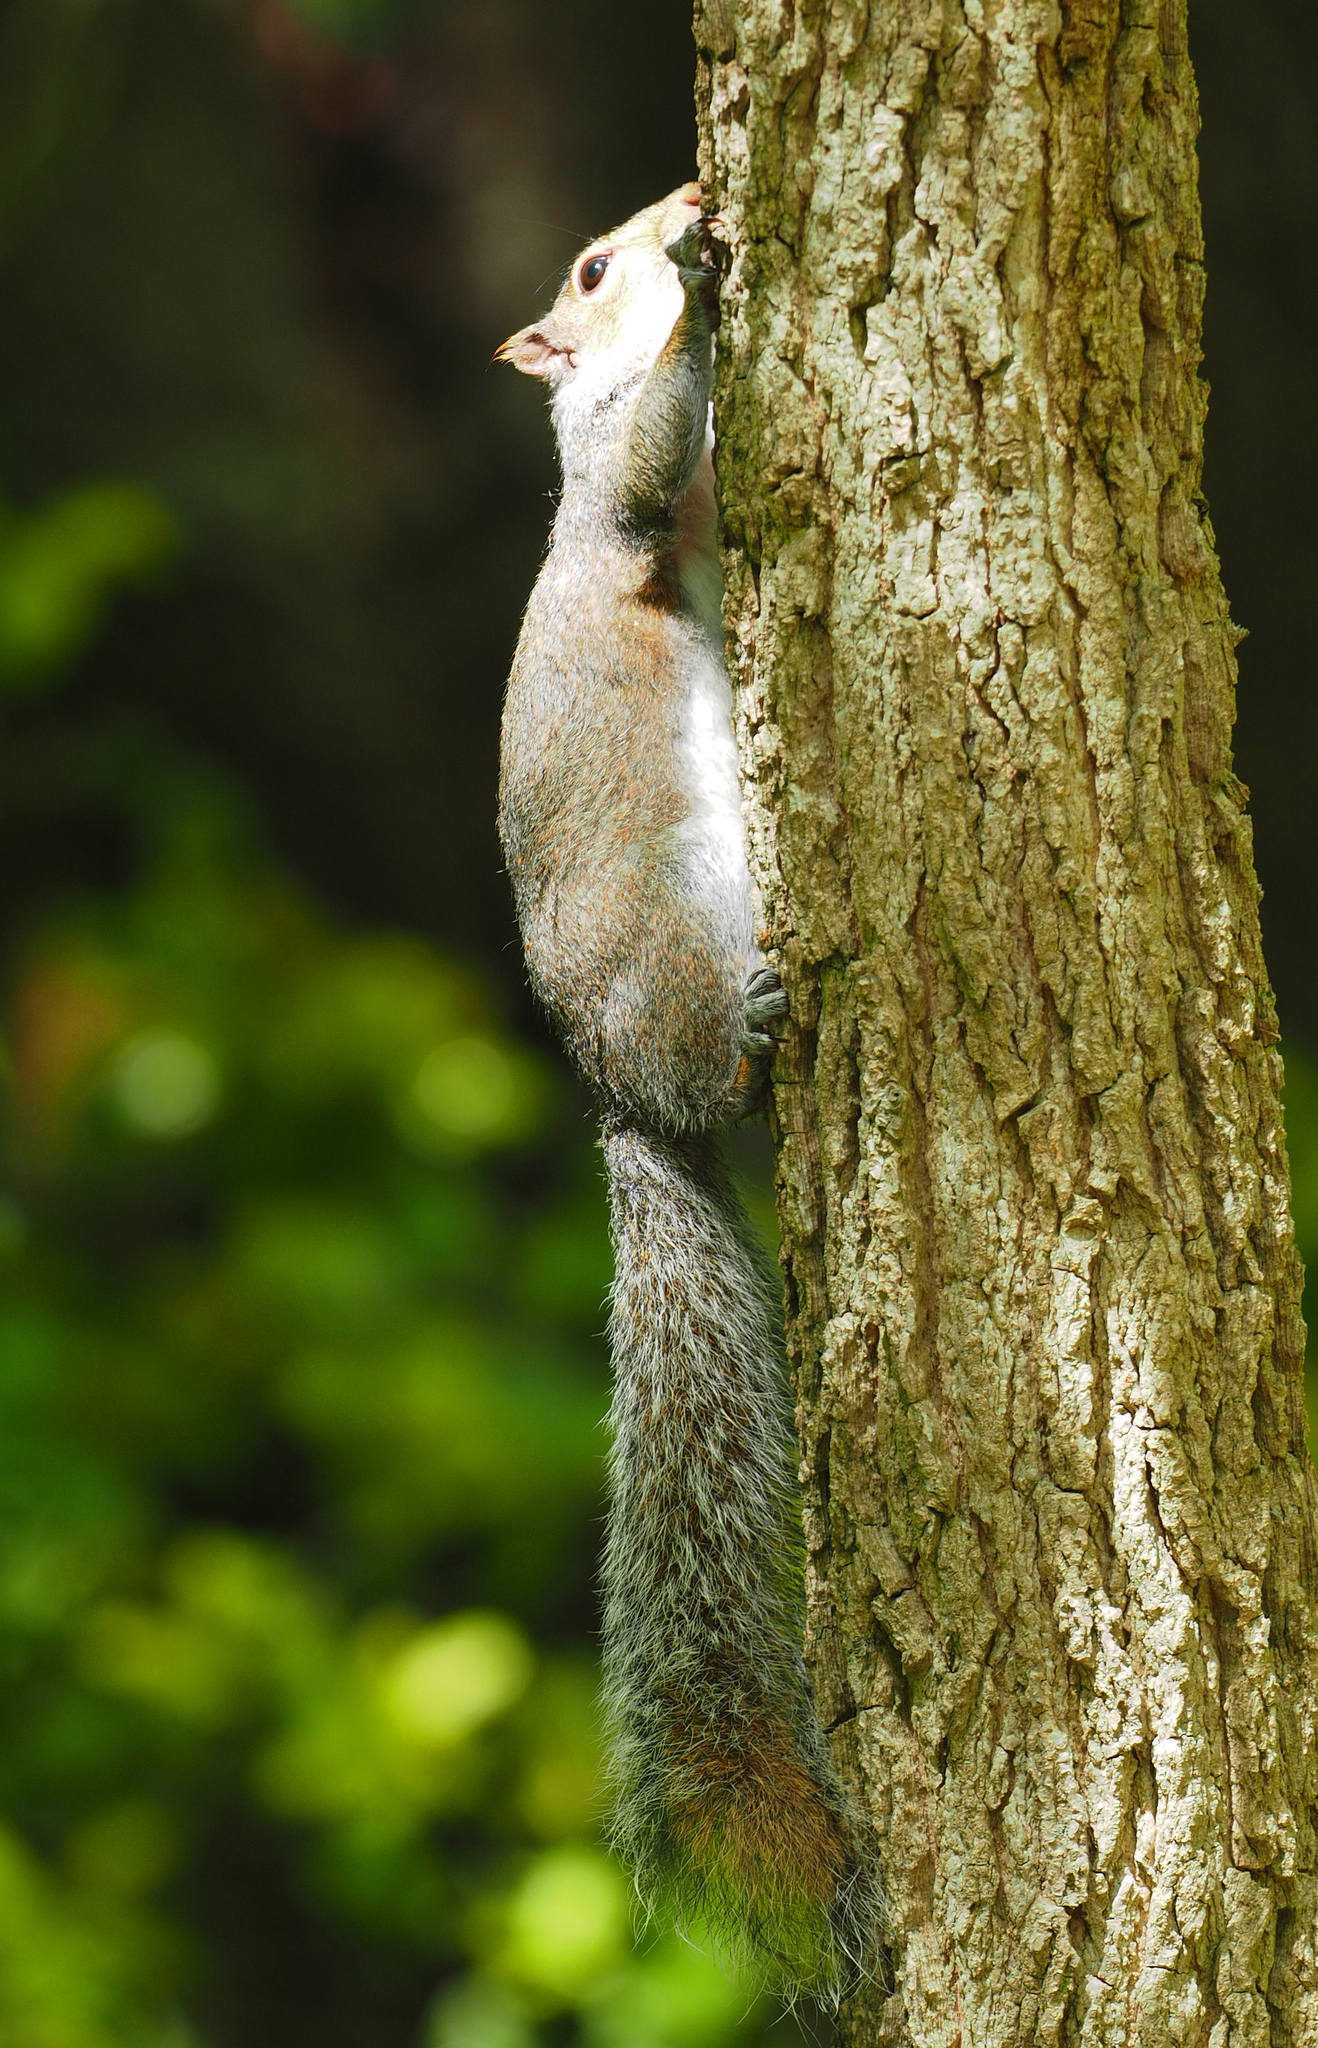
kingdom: Animalia
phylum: Chordata
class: Mammalia
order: Rodentia
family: Sciuridae
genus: Sciurus
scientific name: Sciurus carolinensis
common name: Eastern gray squirrel
